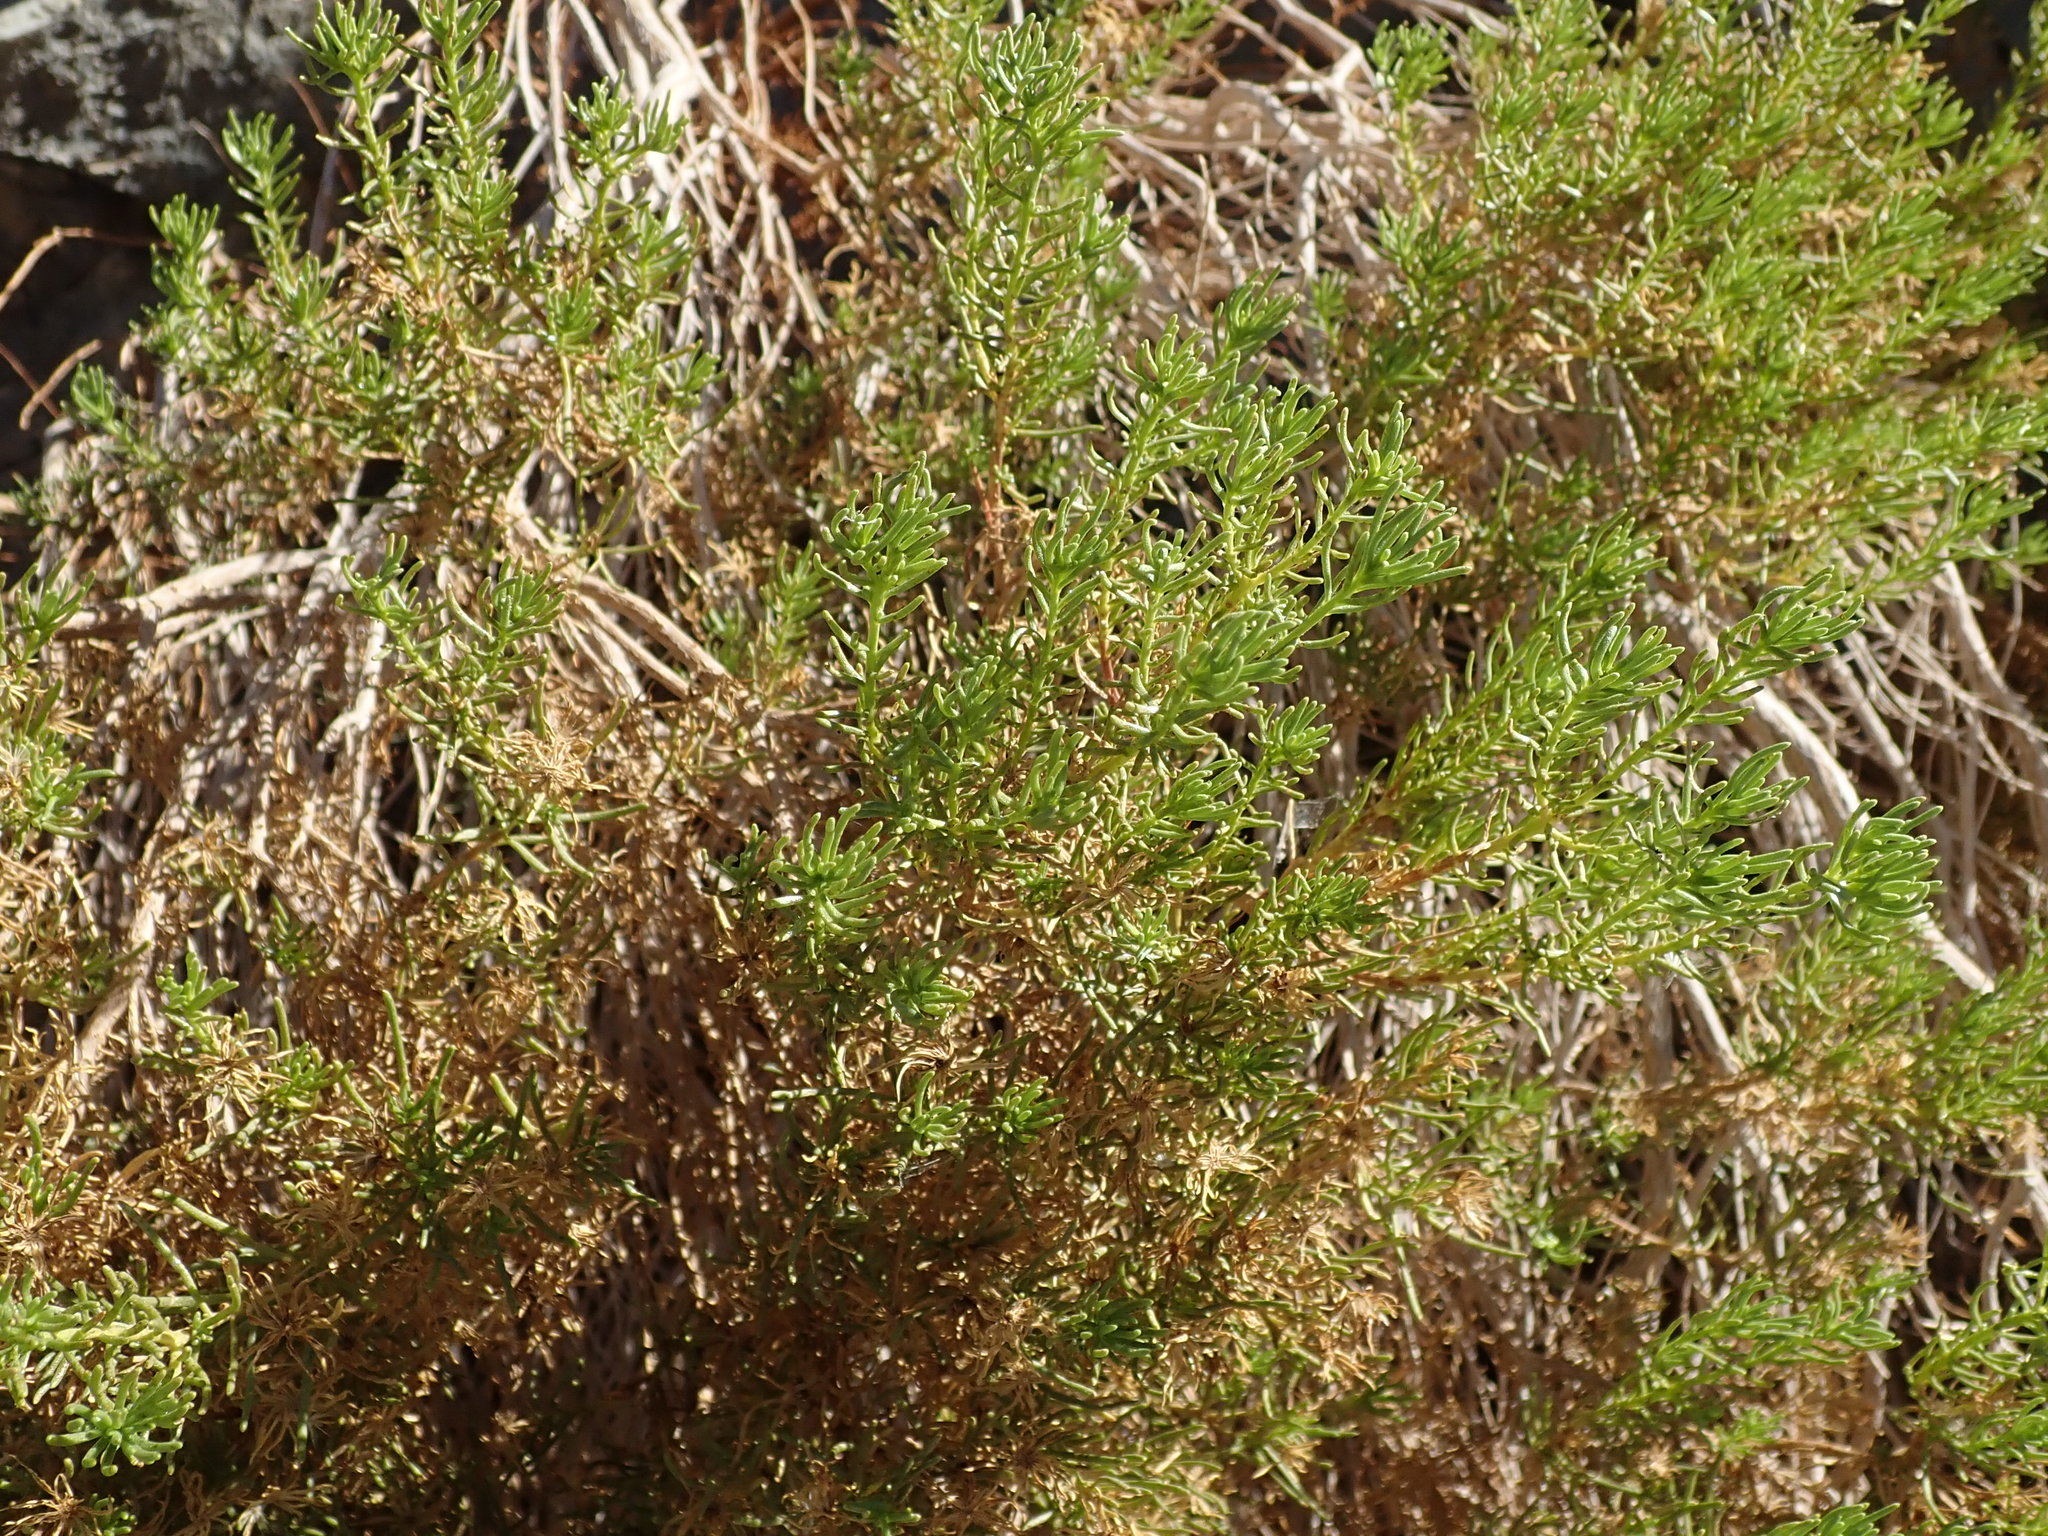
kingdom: Plantae
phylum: Tracheophyta
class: Magnoliopsida
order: Asterales
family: Asteraceae
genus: Peucephyllum
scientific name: Peucephyllum schottii
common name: Pygmy-cedar
